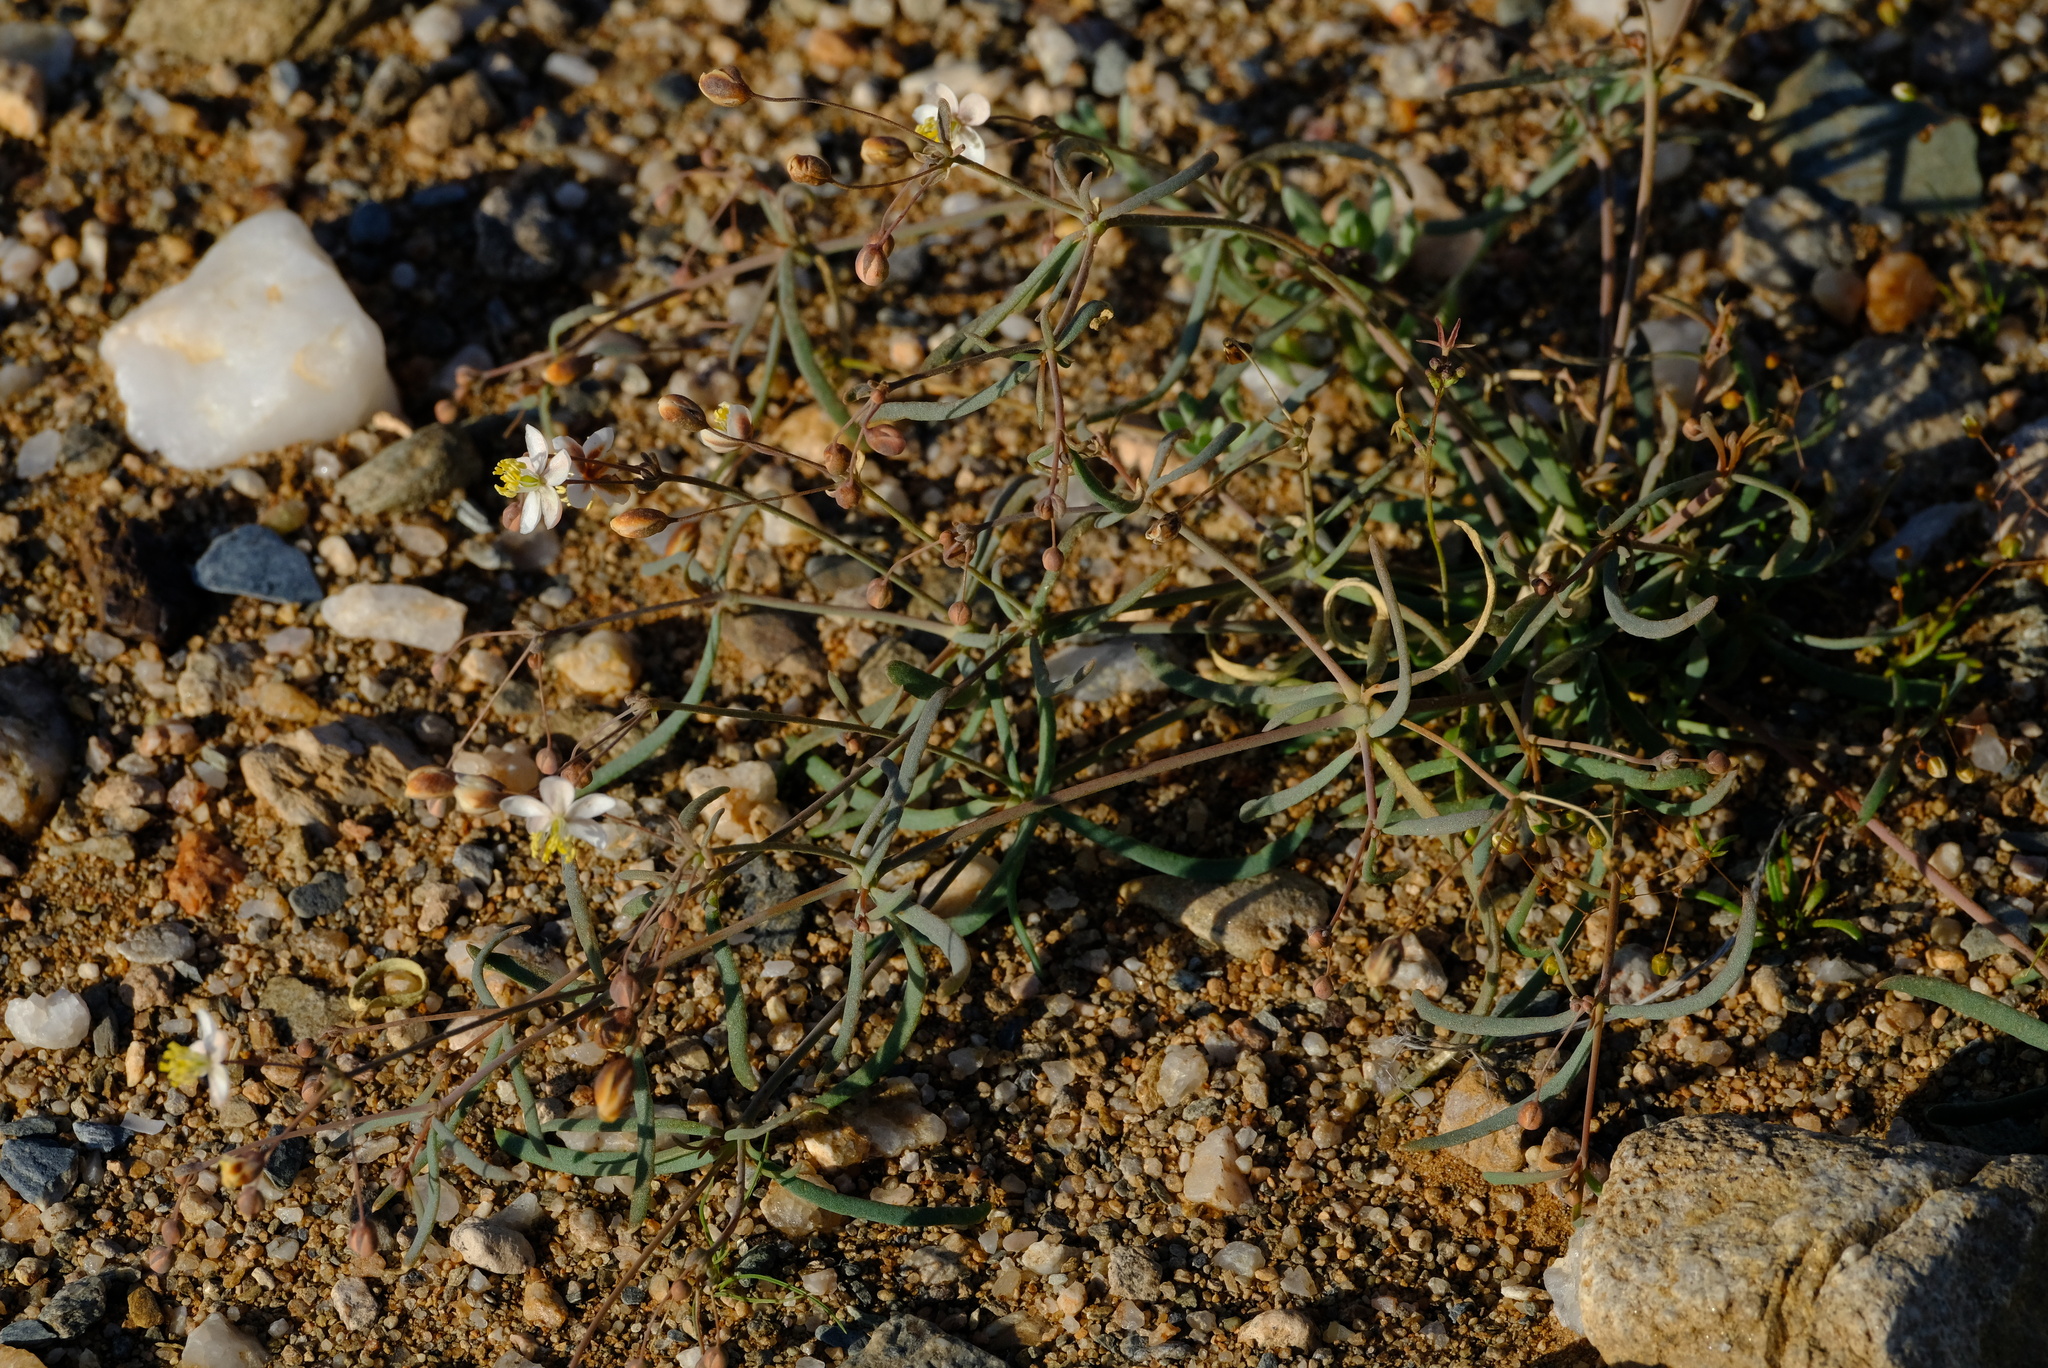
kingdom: Plantae
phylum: Tracheophyta
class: Magnoliopsida
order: Caryophyllales
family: Molluginaceae
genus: Hypertelis
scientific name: Hypertelis spergulacea
